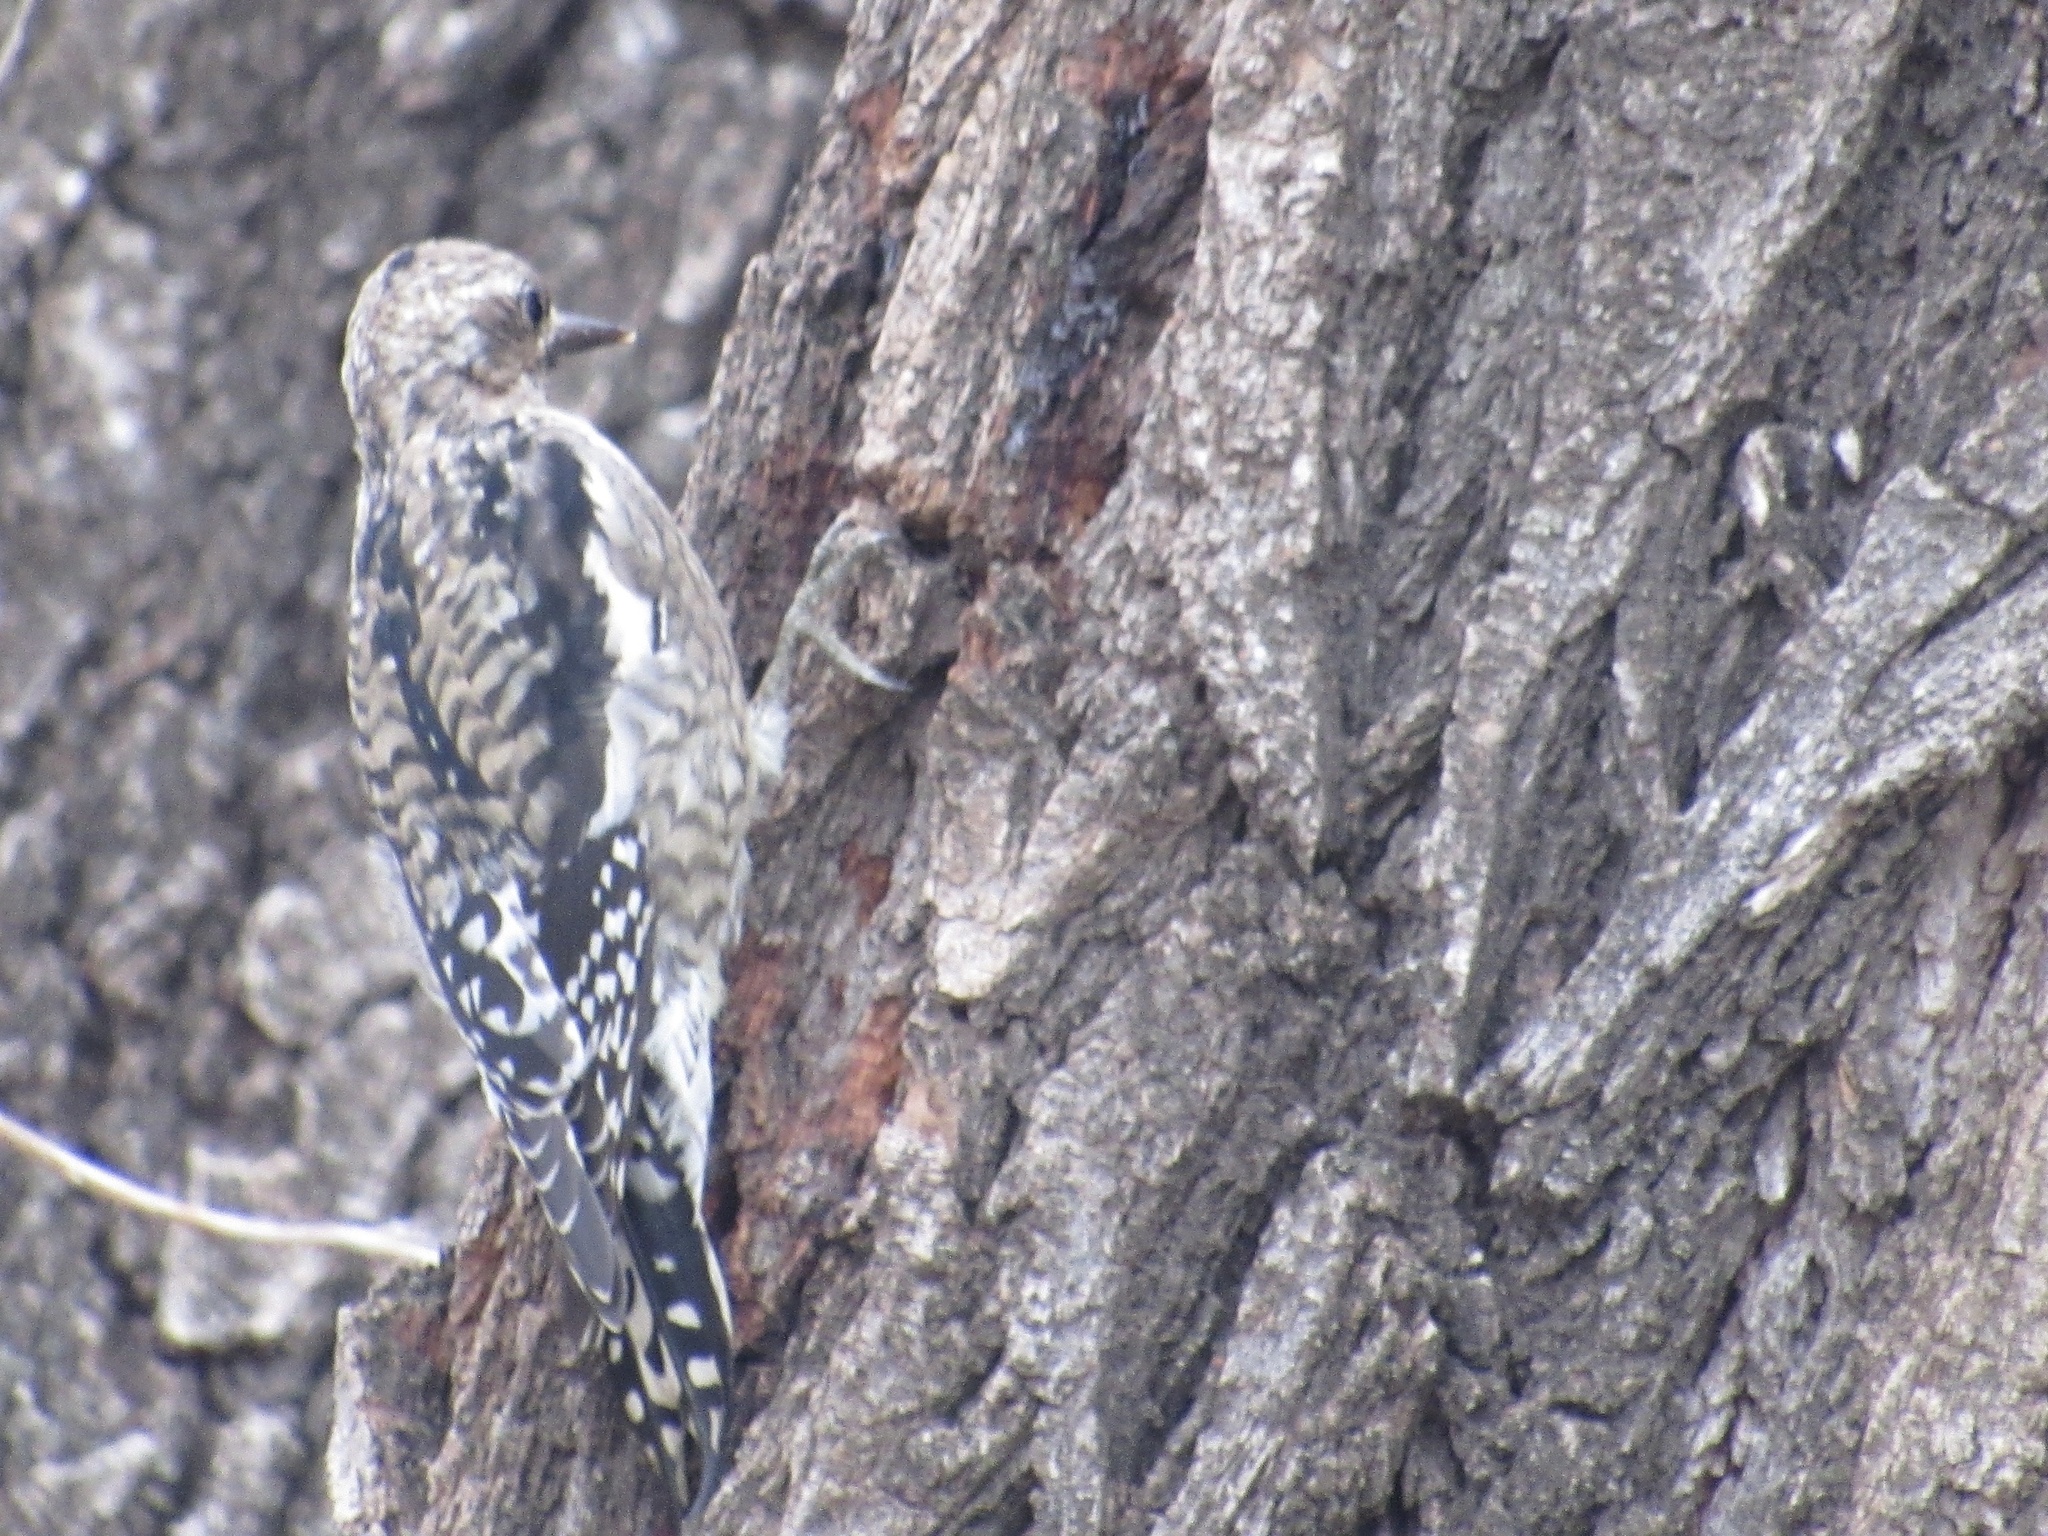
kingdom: Animalia
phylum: Chordata
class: Aves
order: Piciformes
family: Picidae
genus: Sphyrapicus
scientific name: Sphyrapicus varius
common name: Yellow-bellied sapsucker
